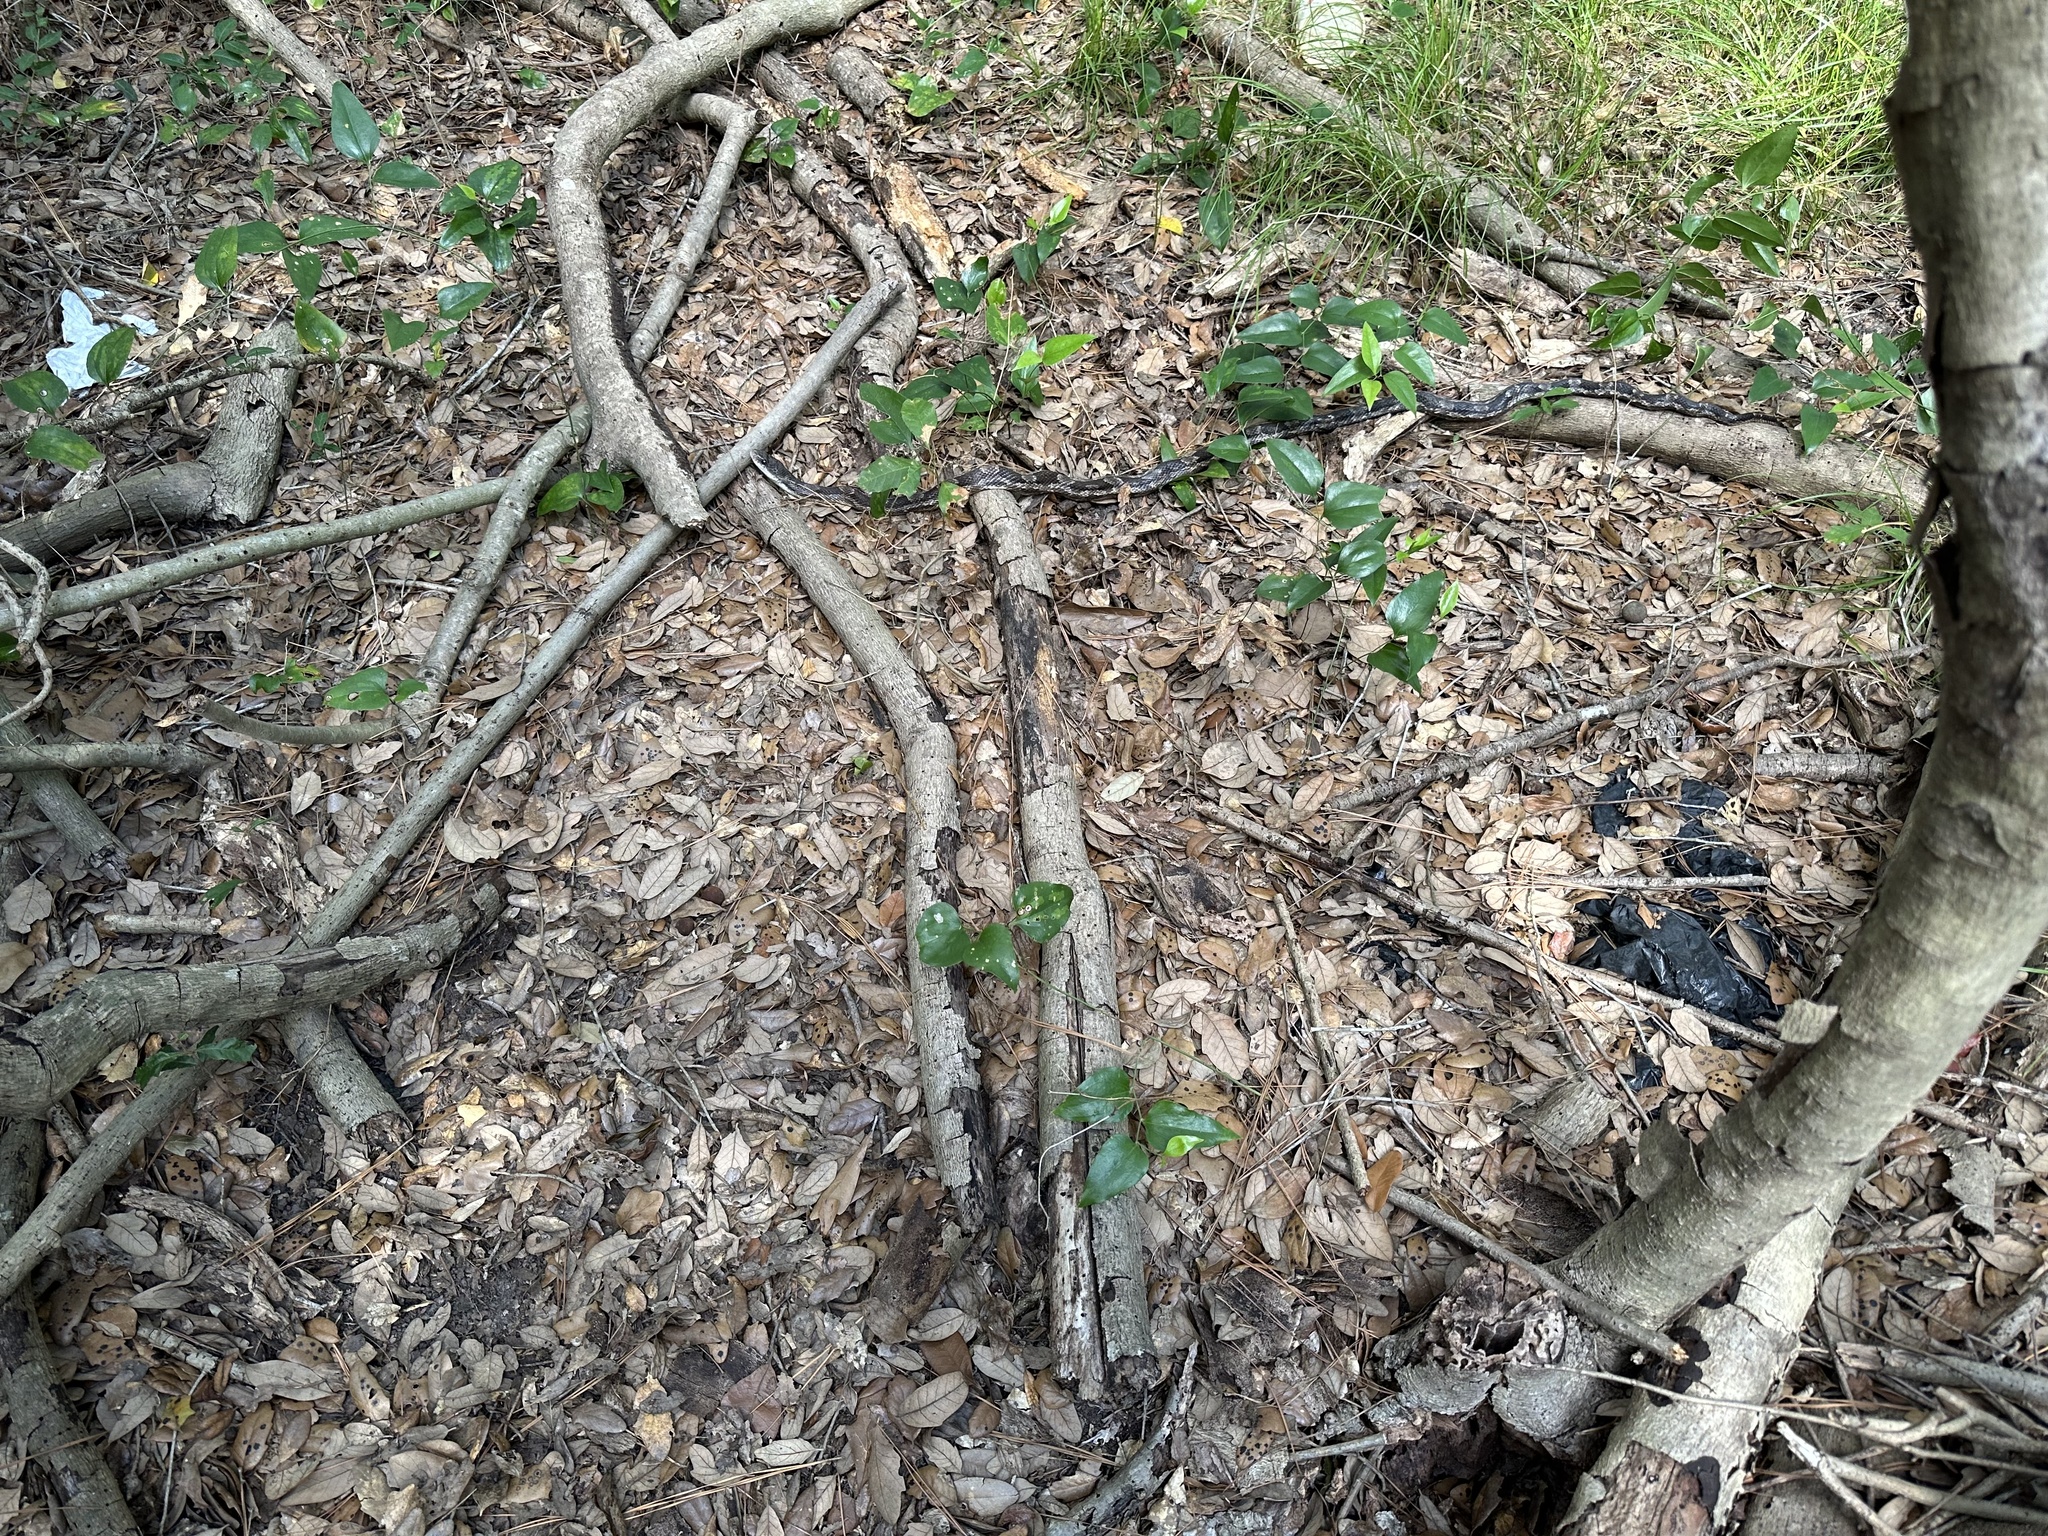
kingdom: Animalia
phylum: Chordata
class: Squamata
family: Colubridae
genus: Pantherophis
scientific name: Pantherophis obsoletus
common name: Black rat snake
